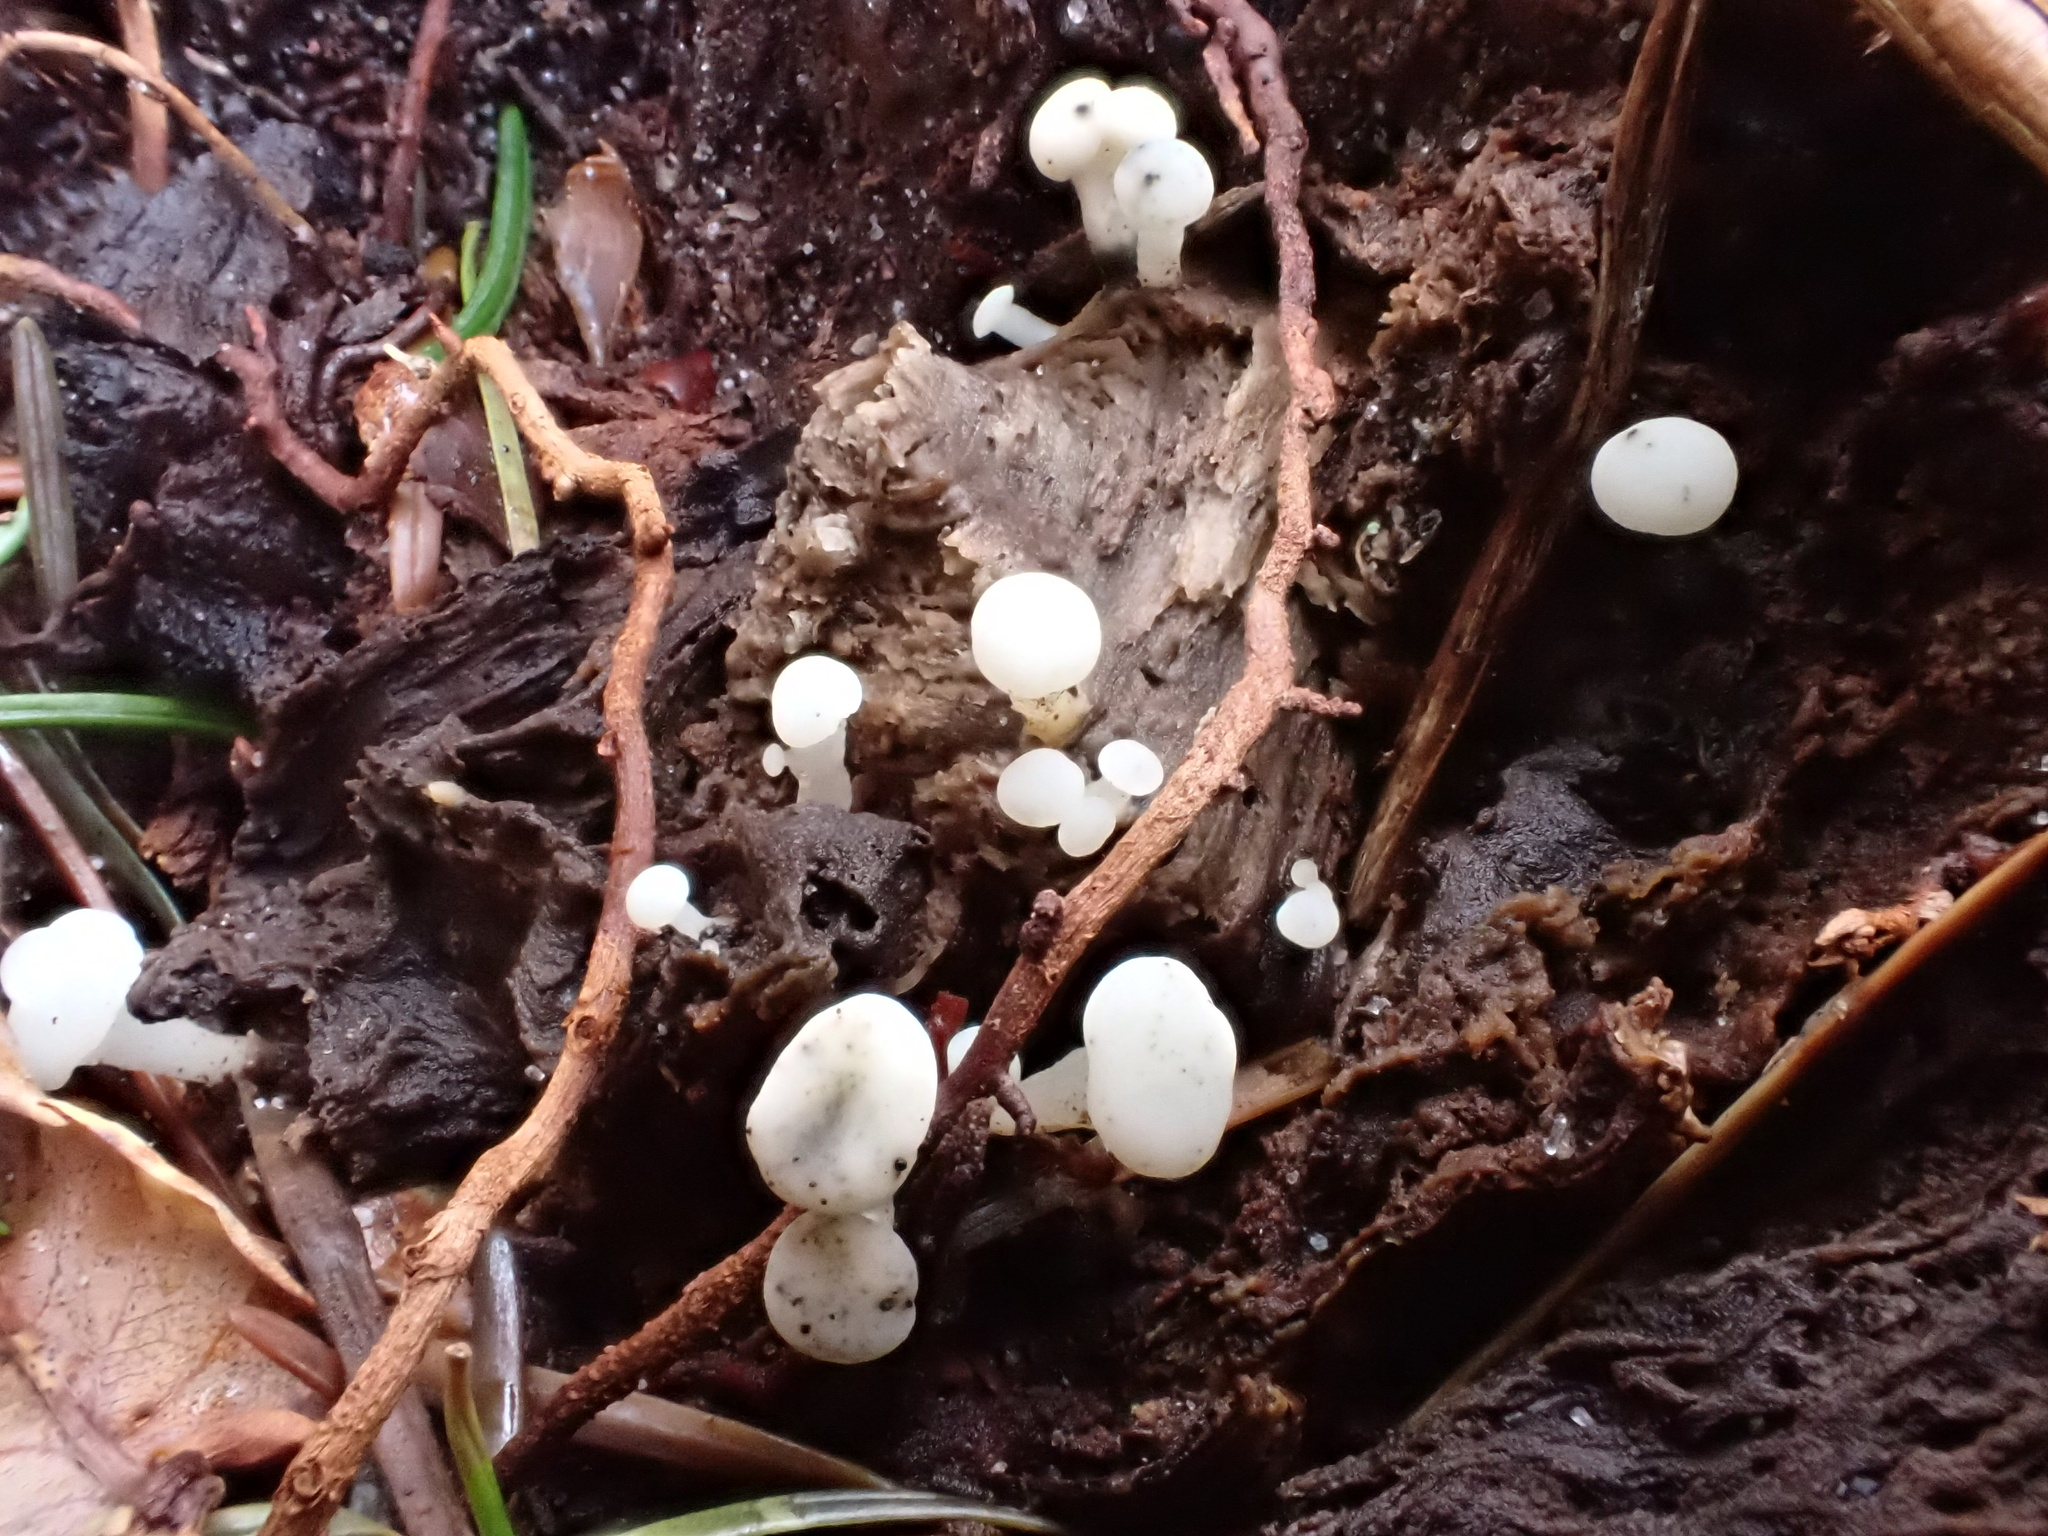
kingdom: Fungi
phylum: Ascomycota
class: Leotiomycetes
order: Helotiales
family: Tricladiaceae
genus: Cudoniella
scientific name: Cudoniella acicularis
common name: Oak pin
